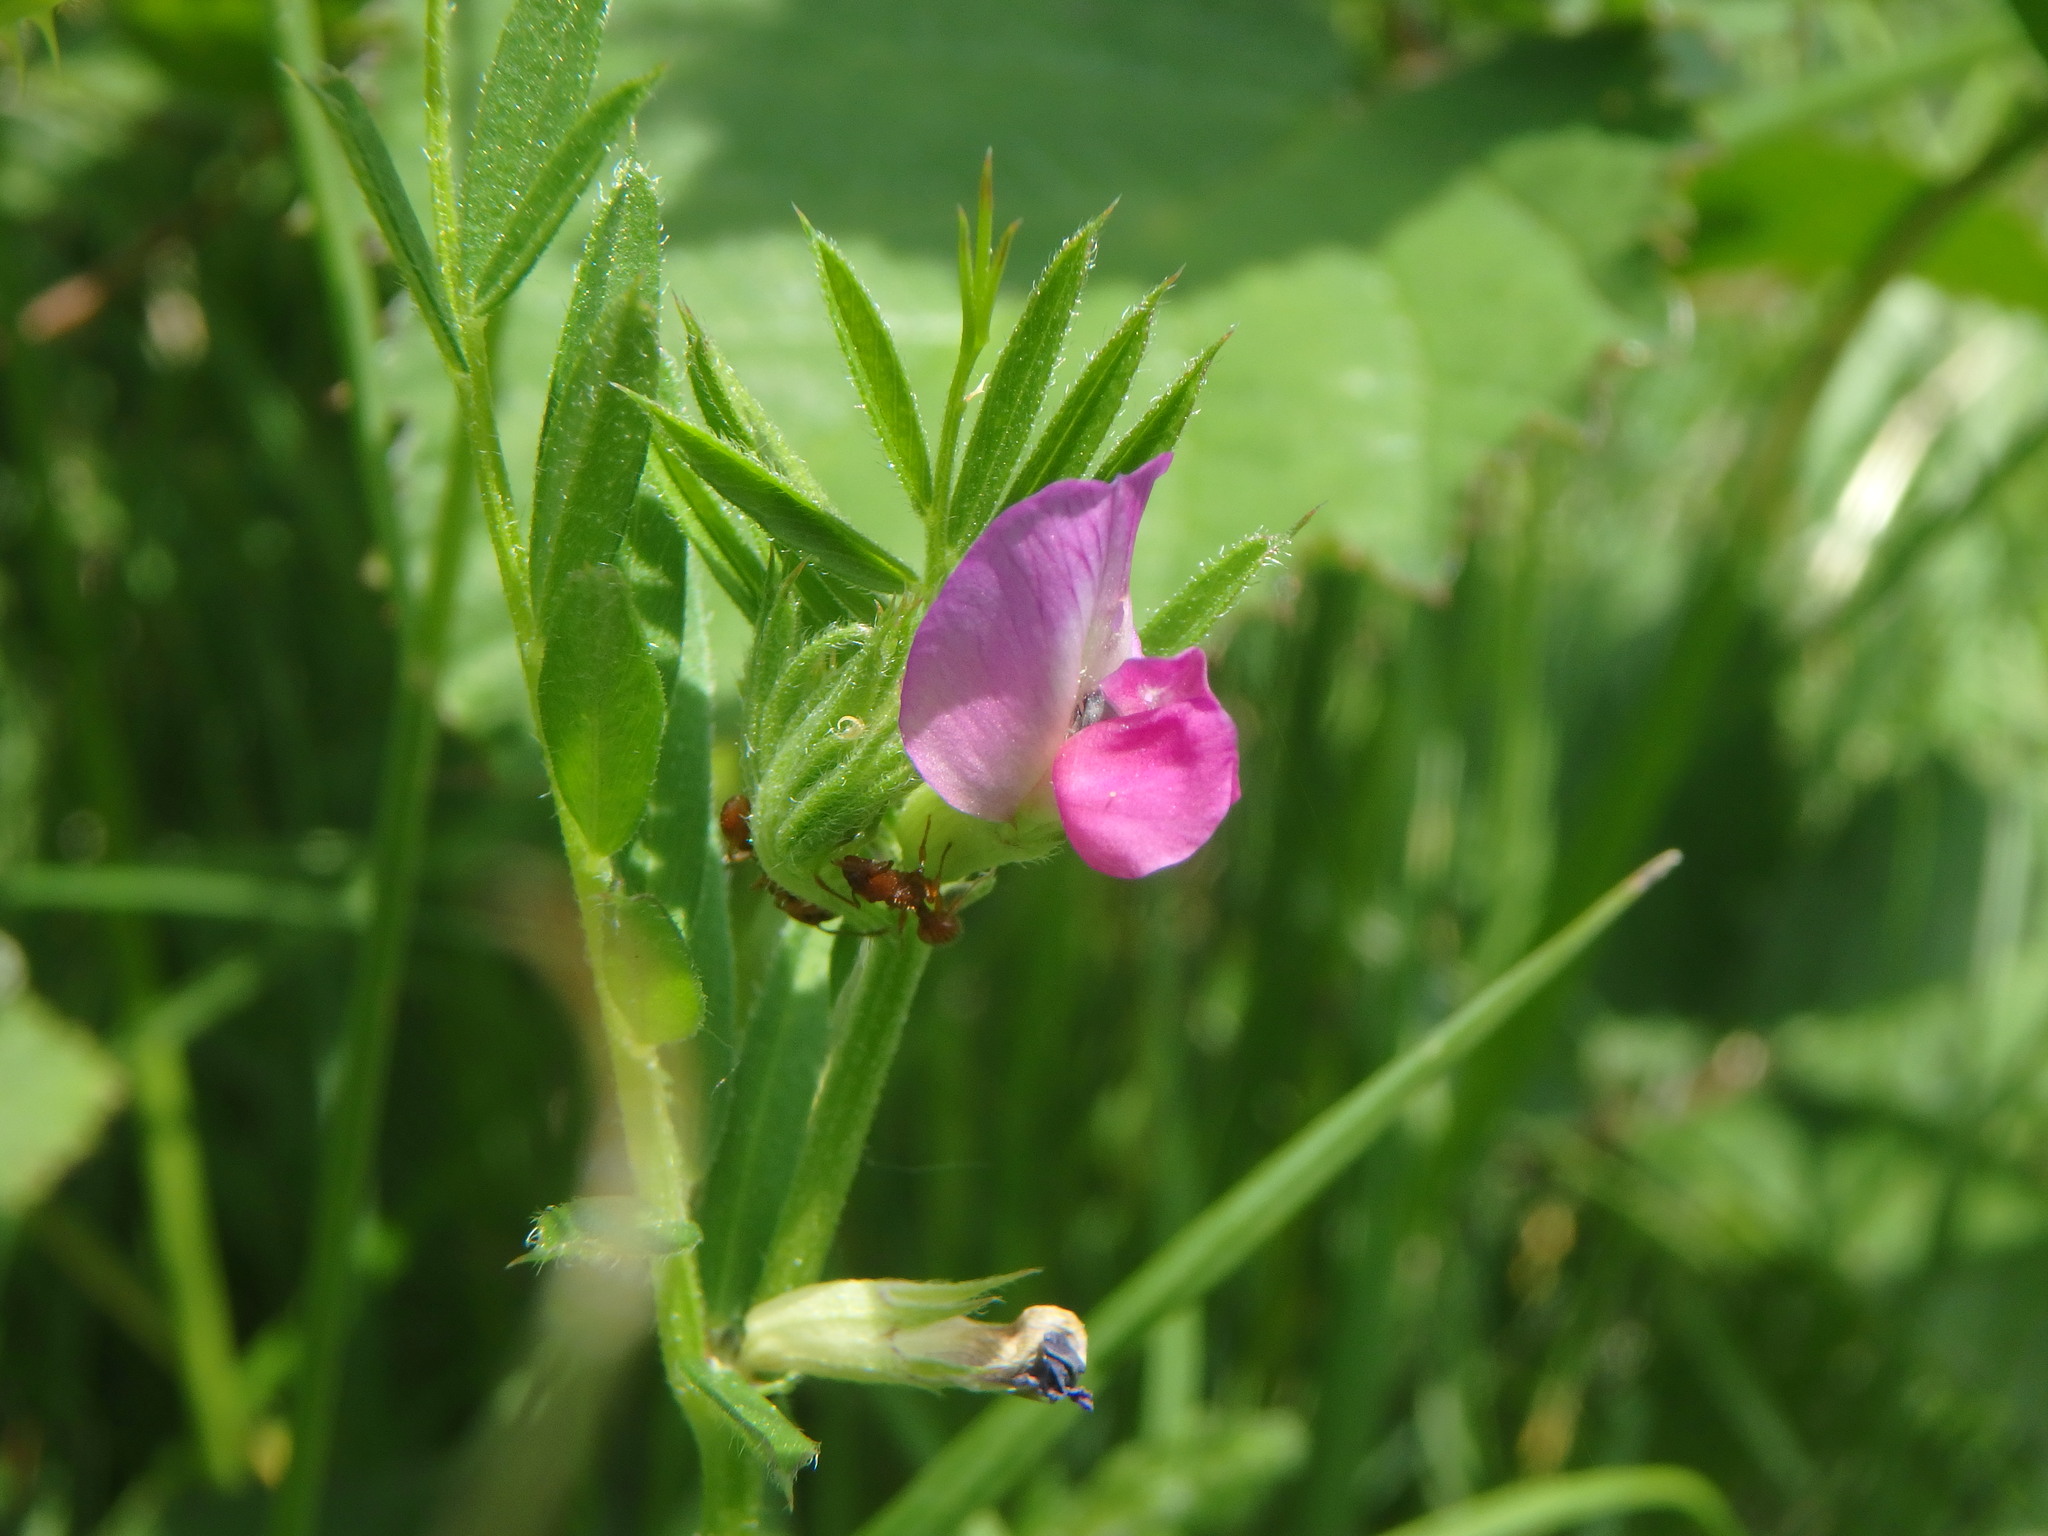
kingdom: Plantae
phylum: Tracheophyta
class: Magnoliopsida
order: Fabales
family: Fabaceae
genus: Vicia
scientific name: Vicia sativa
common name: Garden vetch
